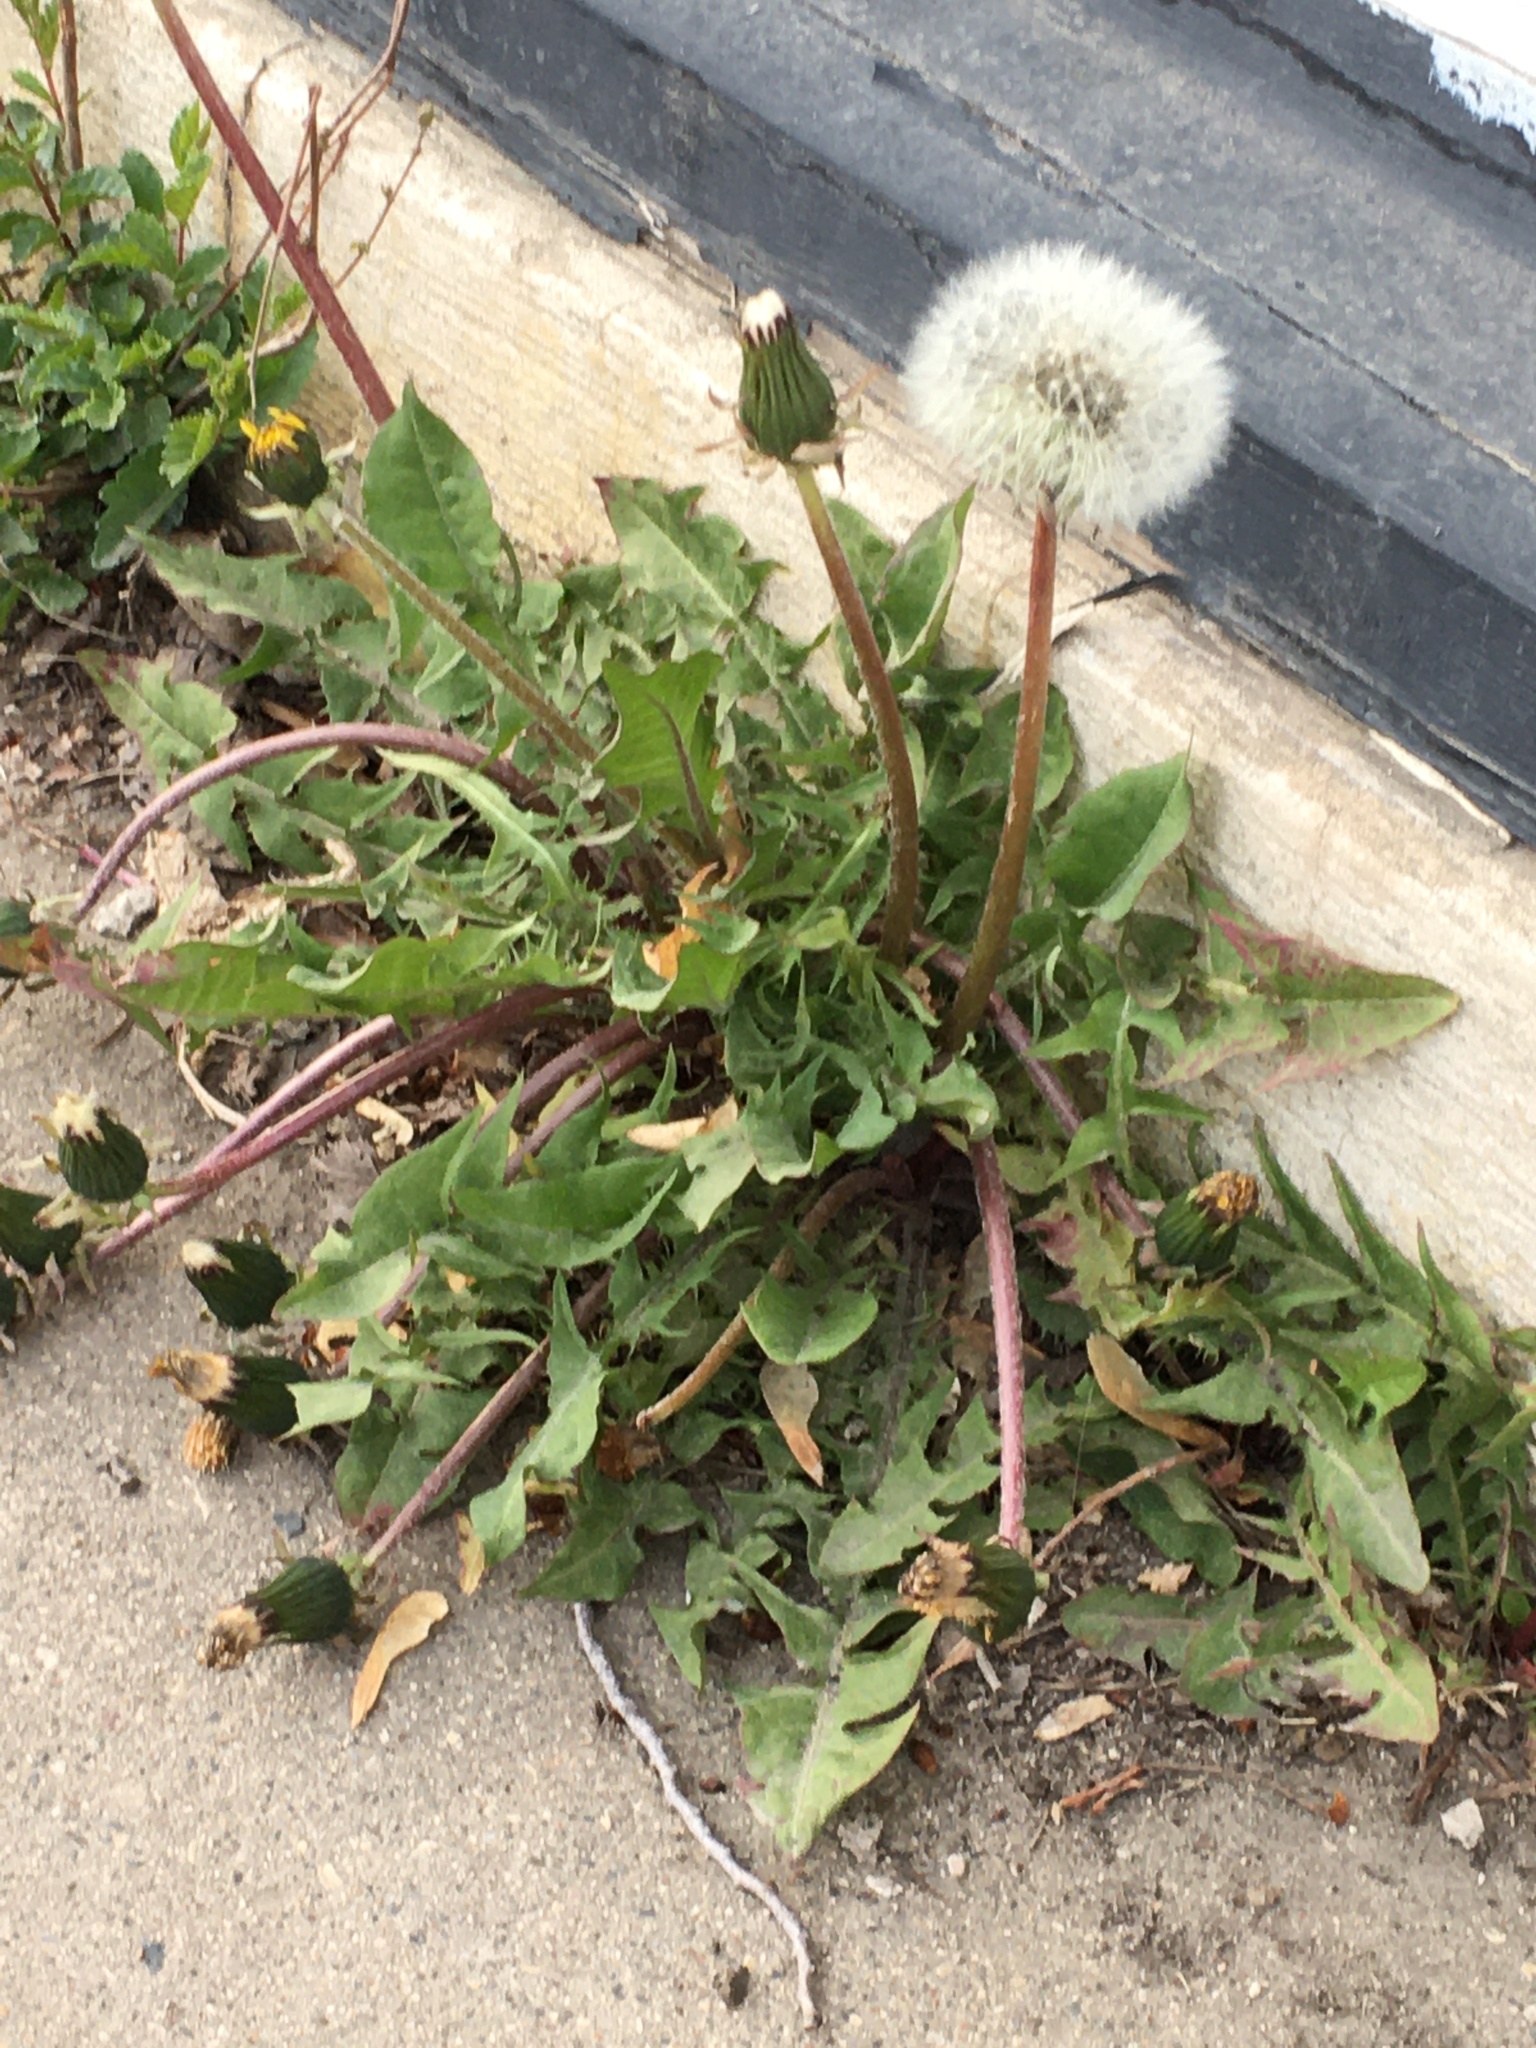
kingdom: Plantae
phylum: Tracheophyta
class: Magnoliopsida
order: Asterales
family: Asteraceae
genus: Taraxacum
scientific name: Taraxacum officinale
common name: Common dandelion
